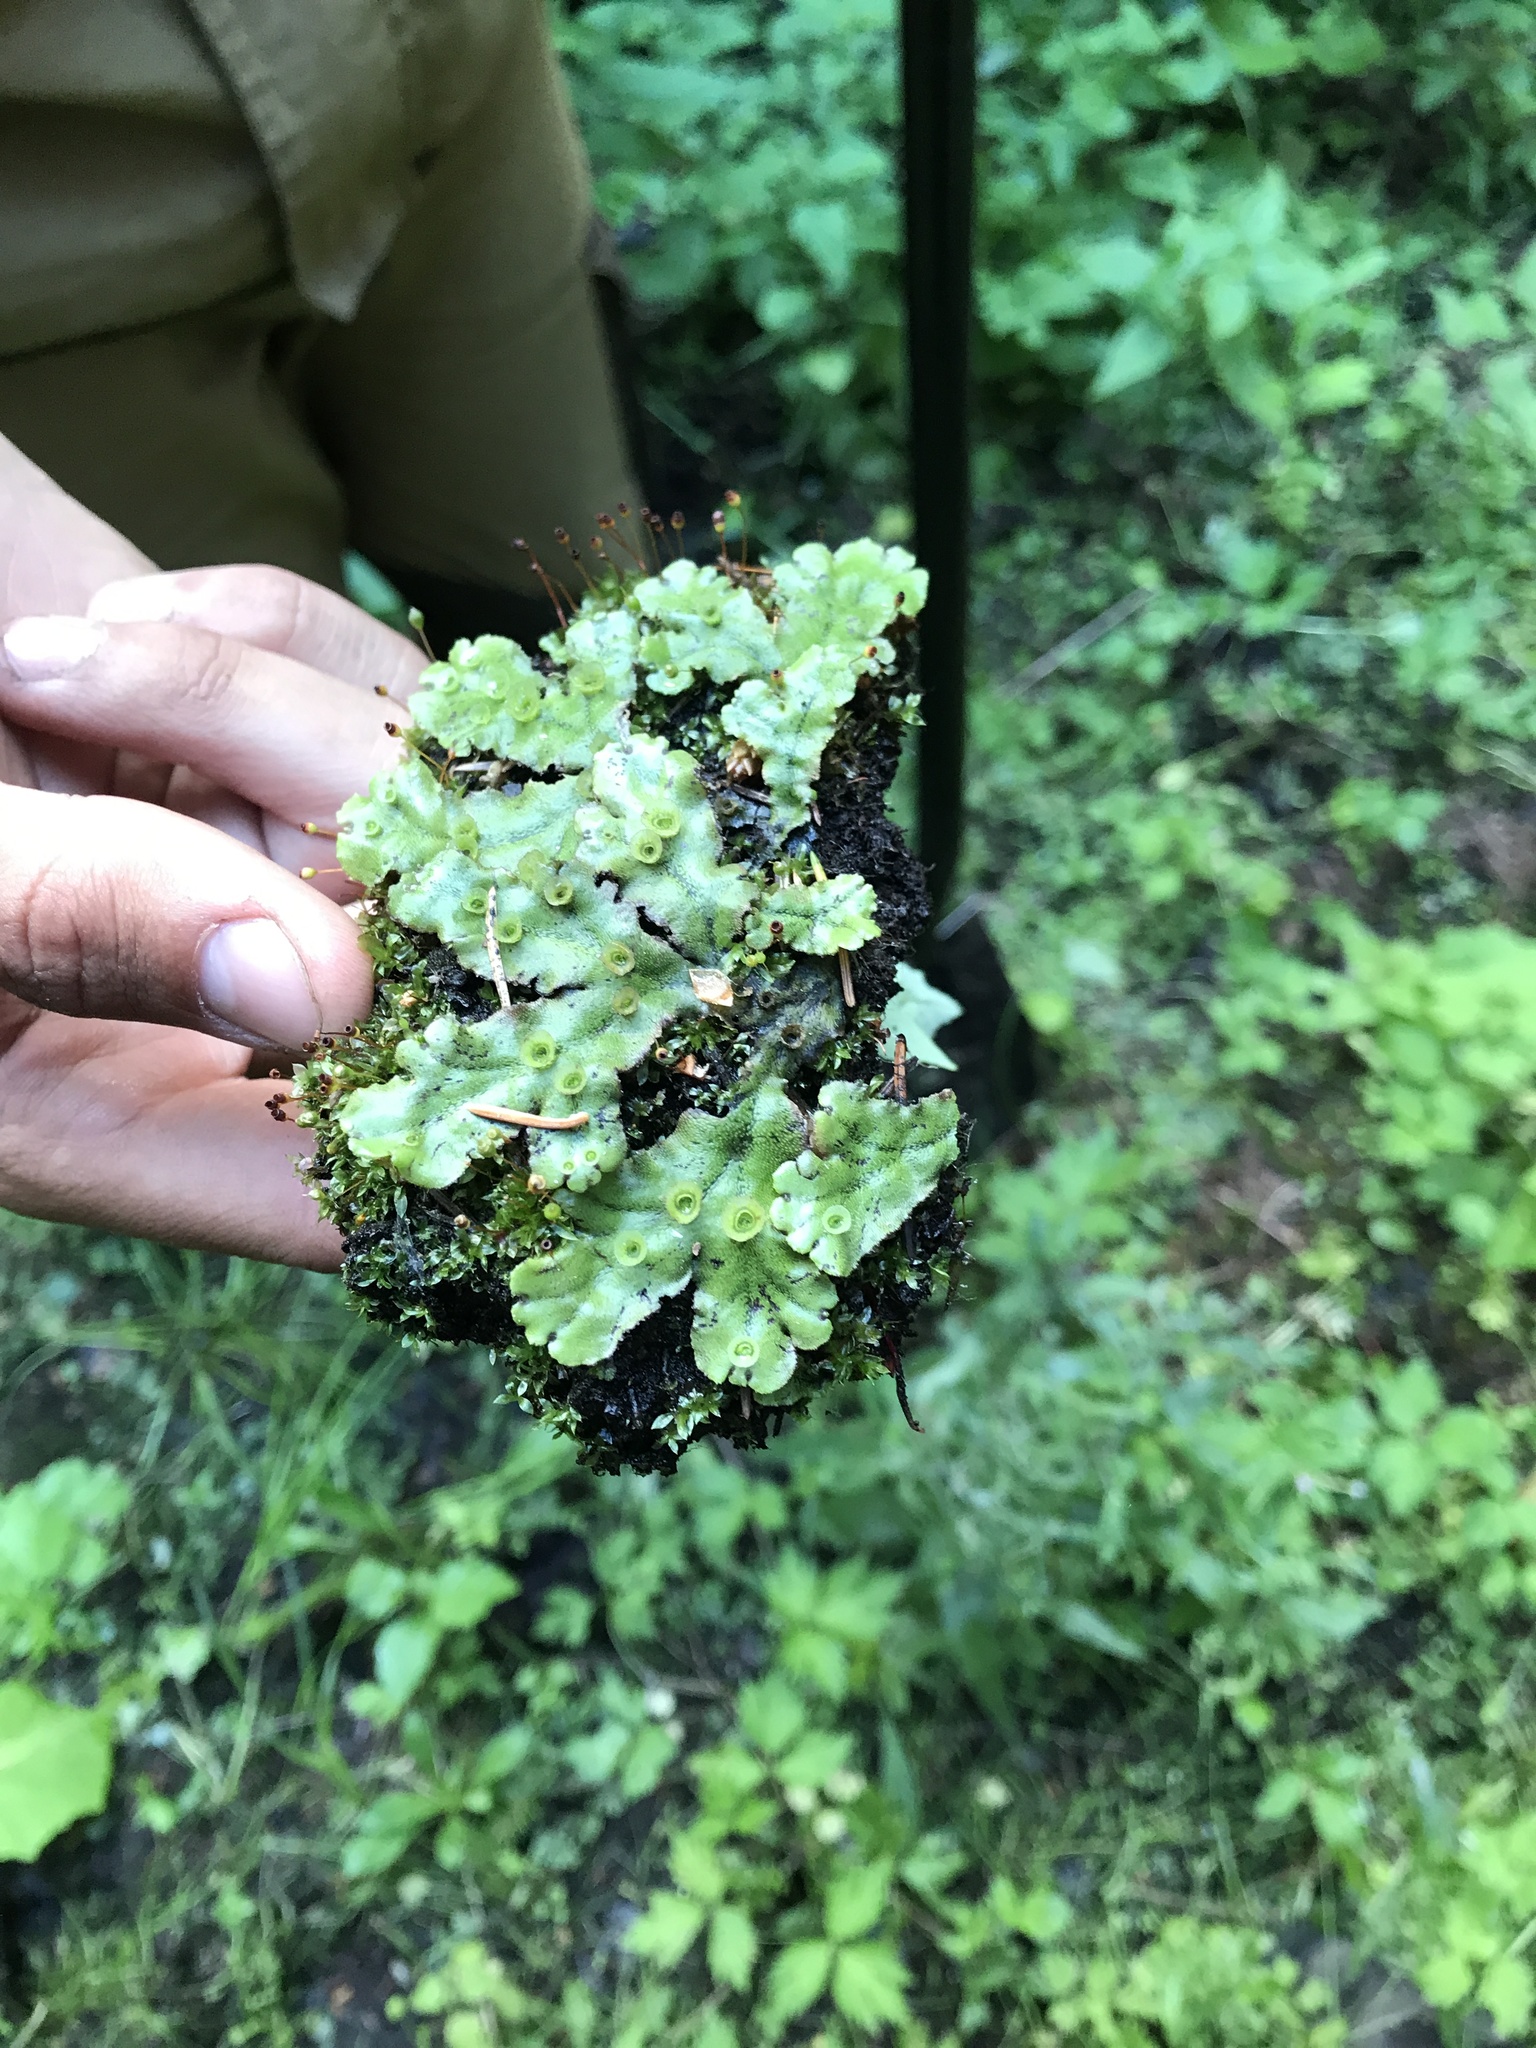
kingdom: Plantae
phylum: Marchantiophyta
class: Marchantiopsida
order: Marchantiales
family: Marchantiaceae
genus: Marchantia
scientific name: Marchantia polymorpha
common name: Common liverwort
